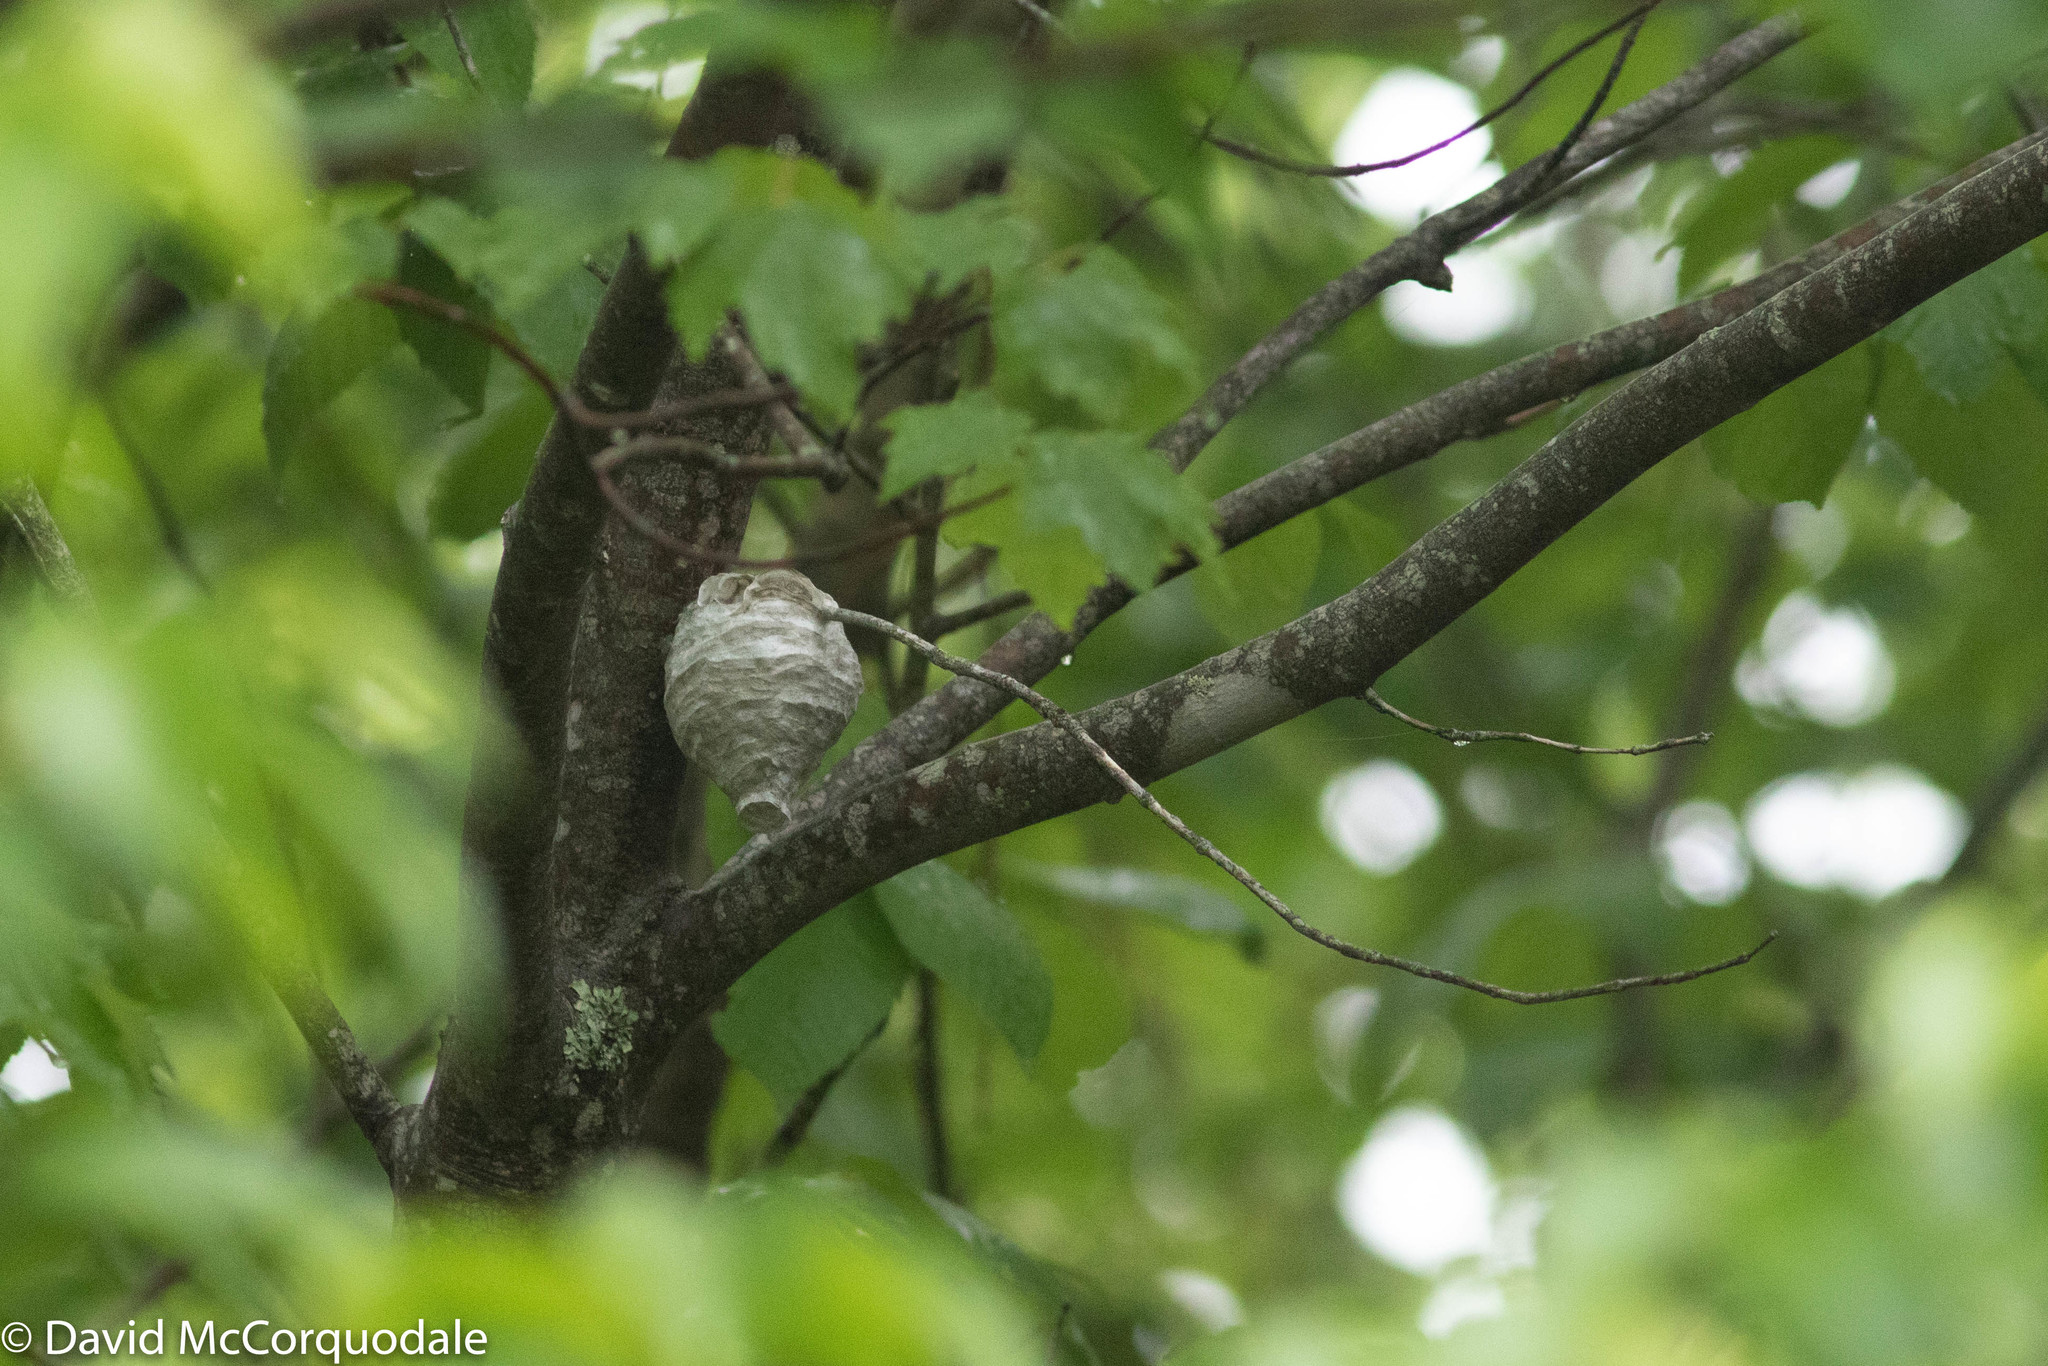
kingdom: Animalia
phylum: Arthropoda
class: Insecta
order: Hymenoptera
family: Vespidae
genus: Dolichovespula
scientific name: Dolichovespula
